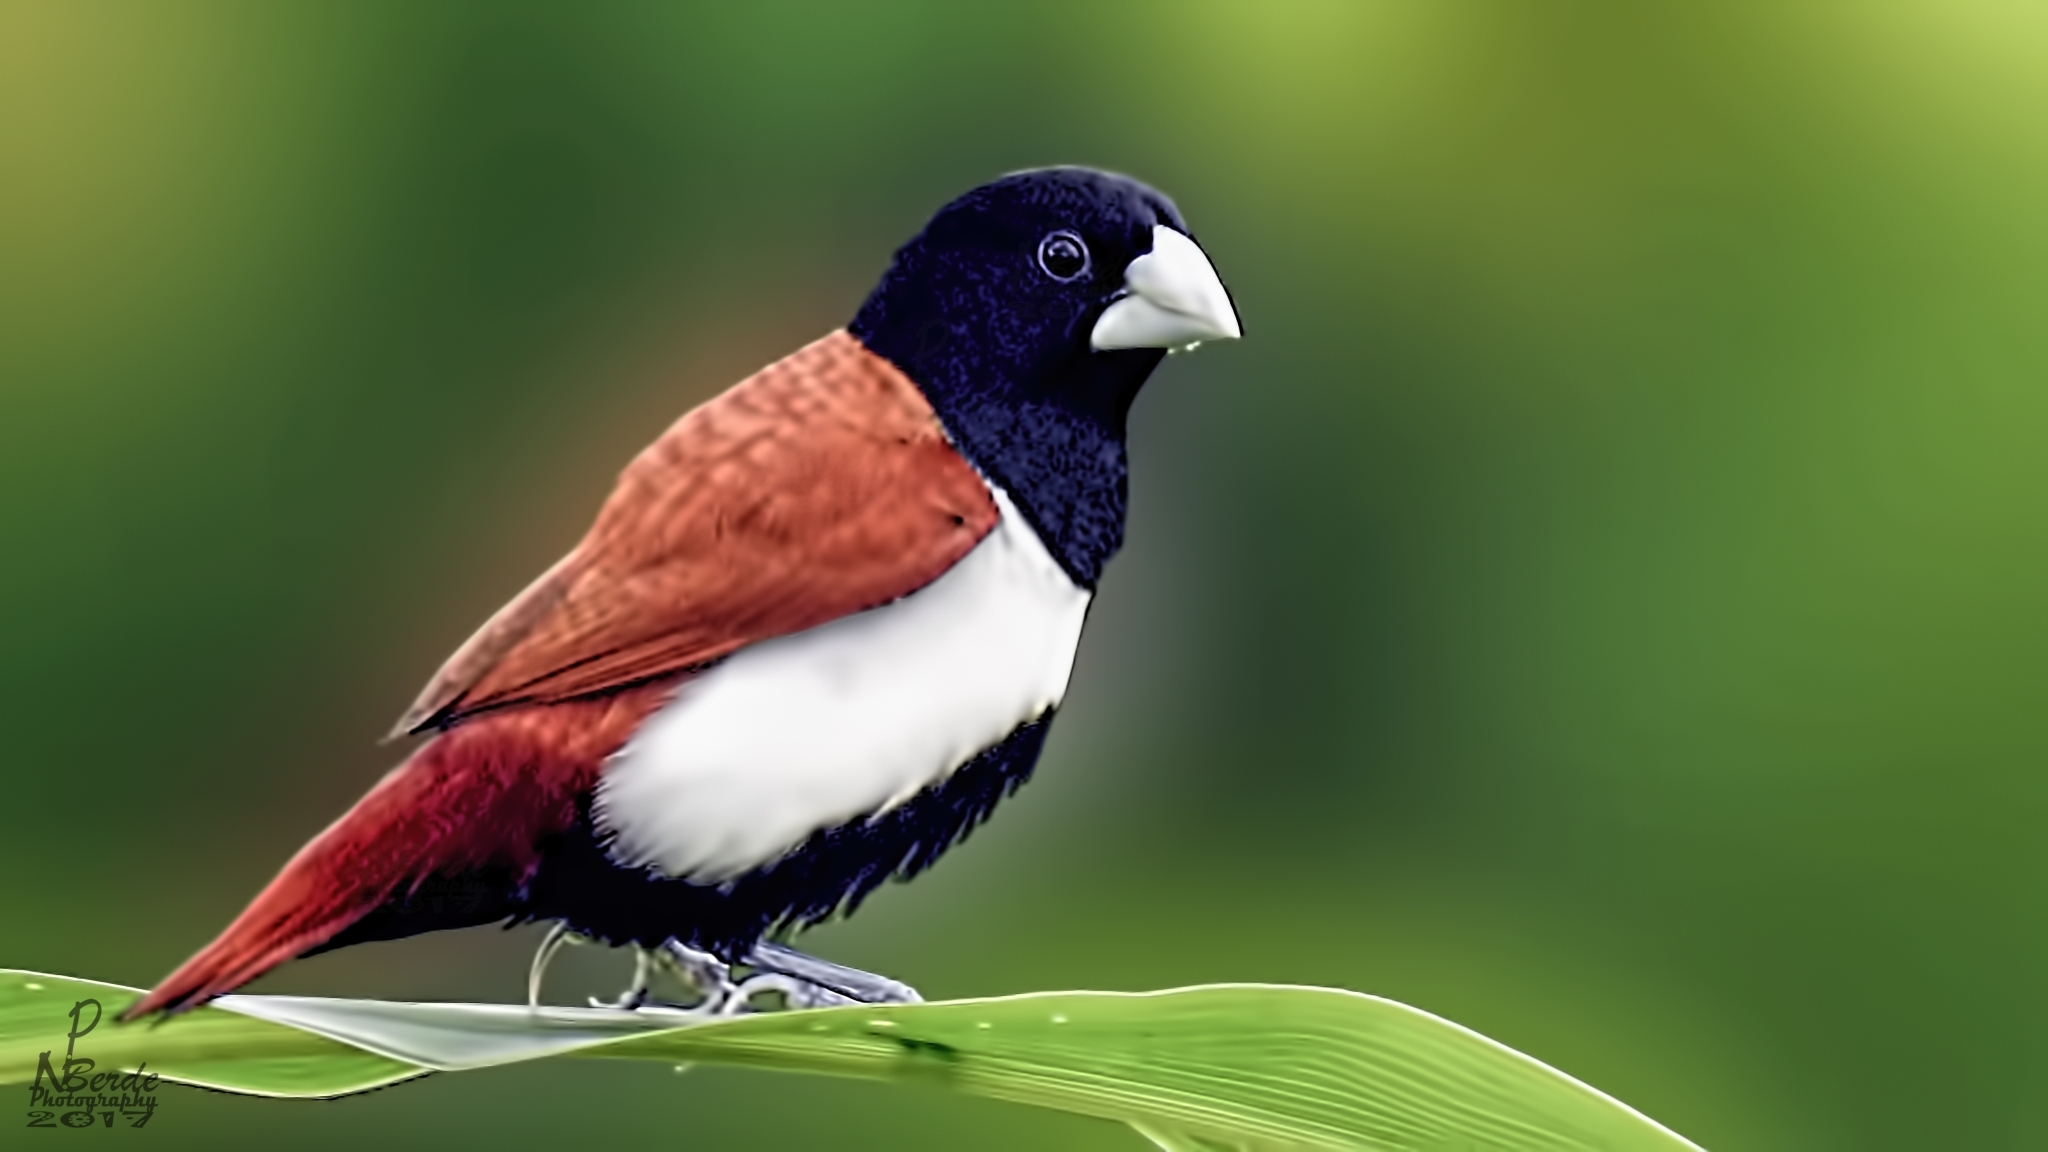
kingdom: Animalia
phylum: Chordata
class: Aves
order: Passeriformes
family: Estrildidae
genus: Lonchura
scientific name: Lonchura malacca
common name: Tricolored munia
